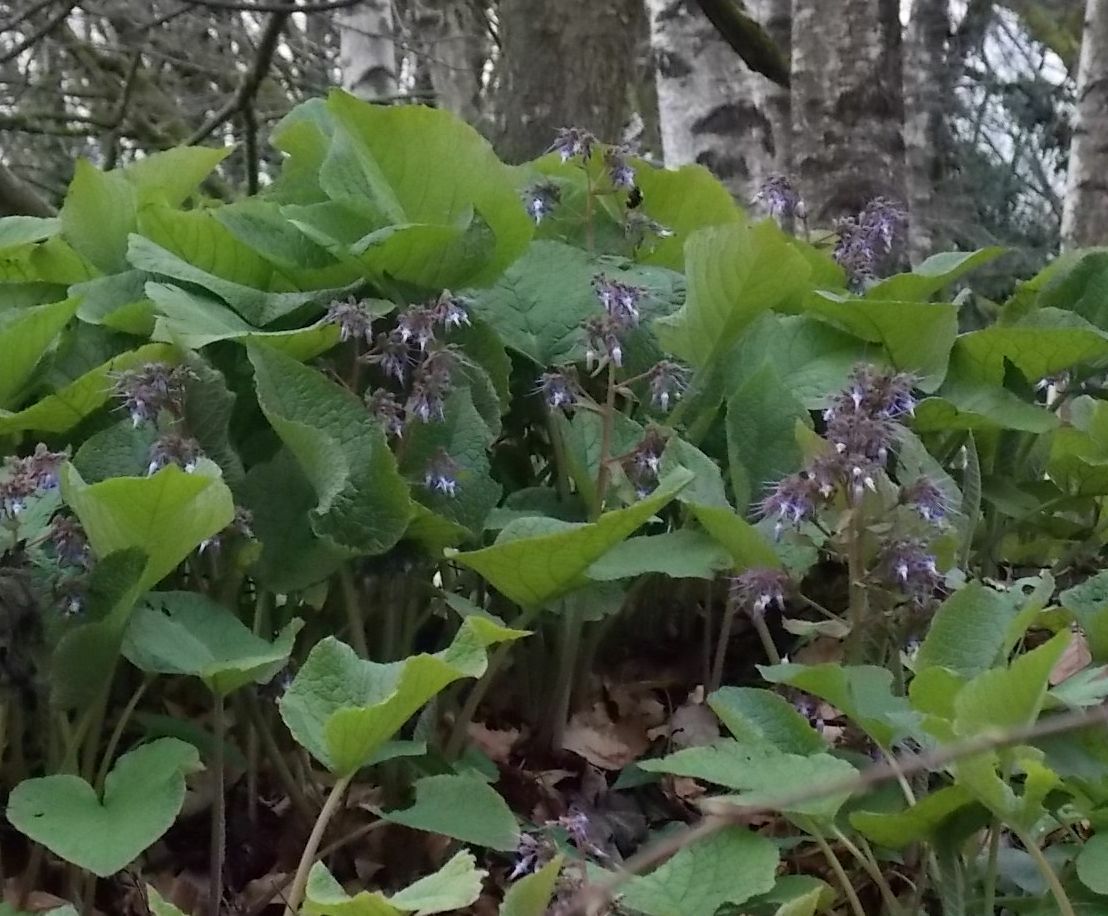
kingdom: Plantae
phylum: Tracheophyta
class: Magnoliopsida
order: Boraginales
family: Boraginaceae
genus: Trachystemon
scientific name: Trachystemon orientale
